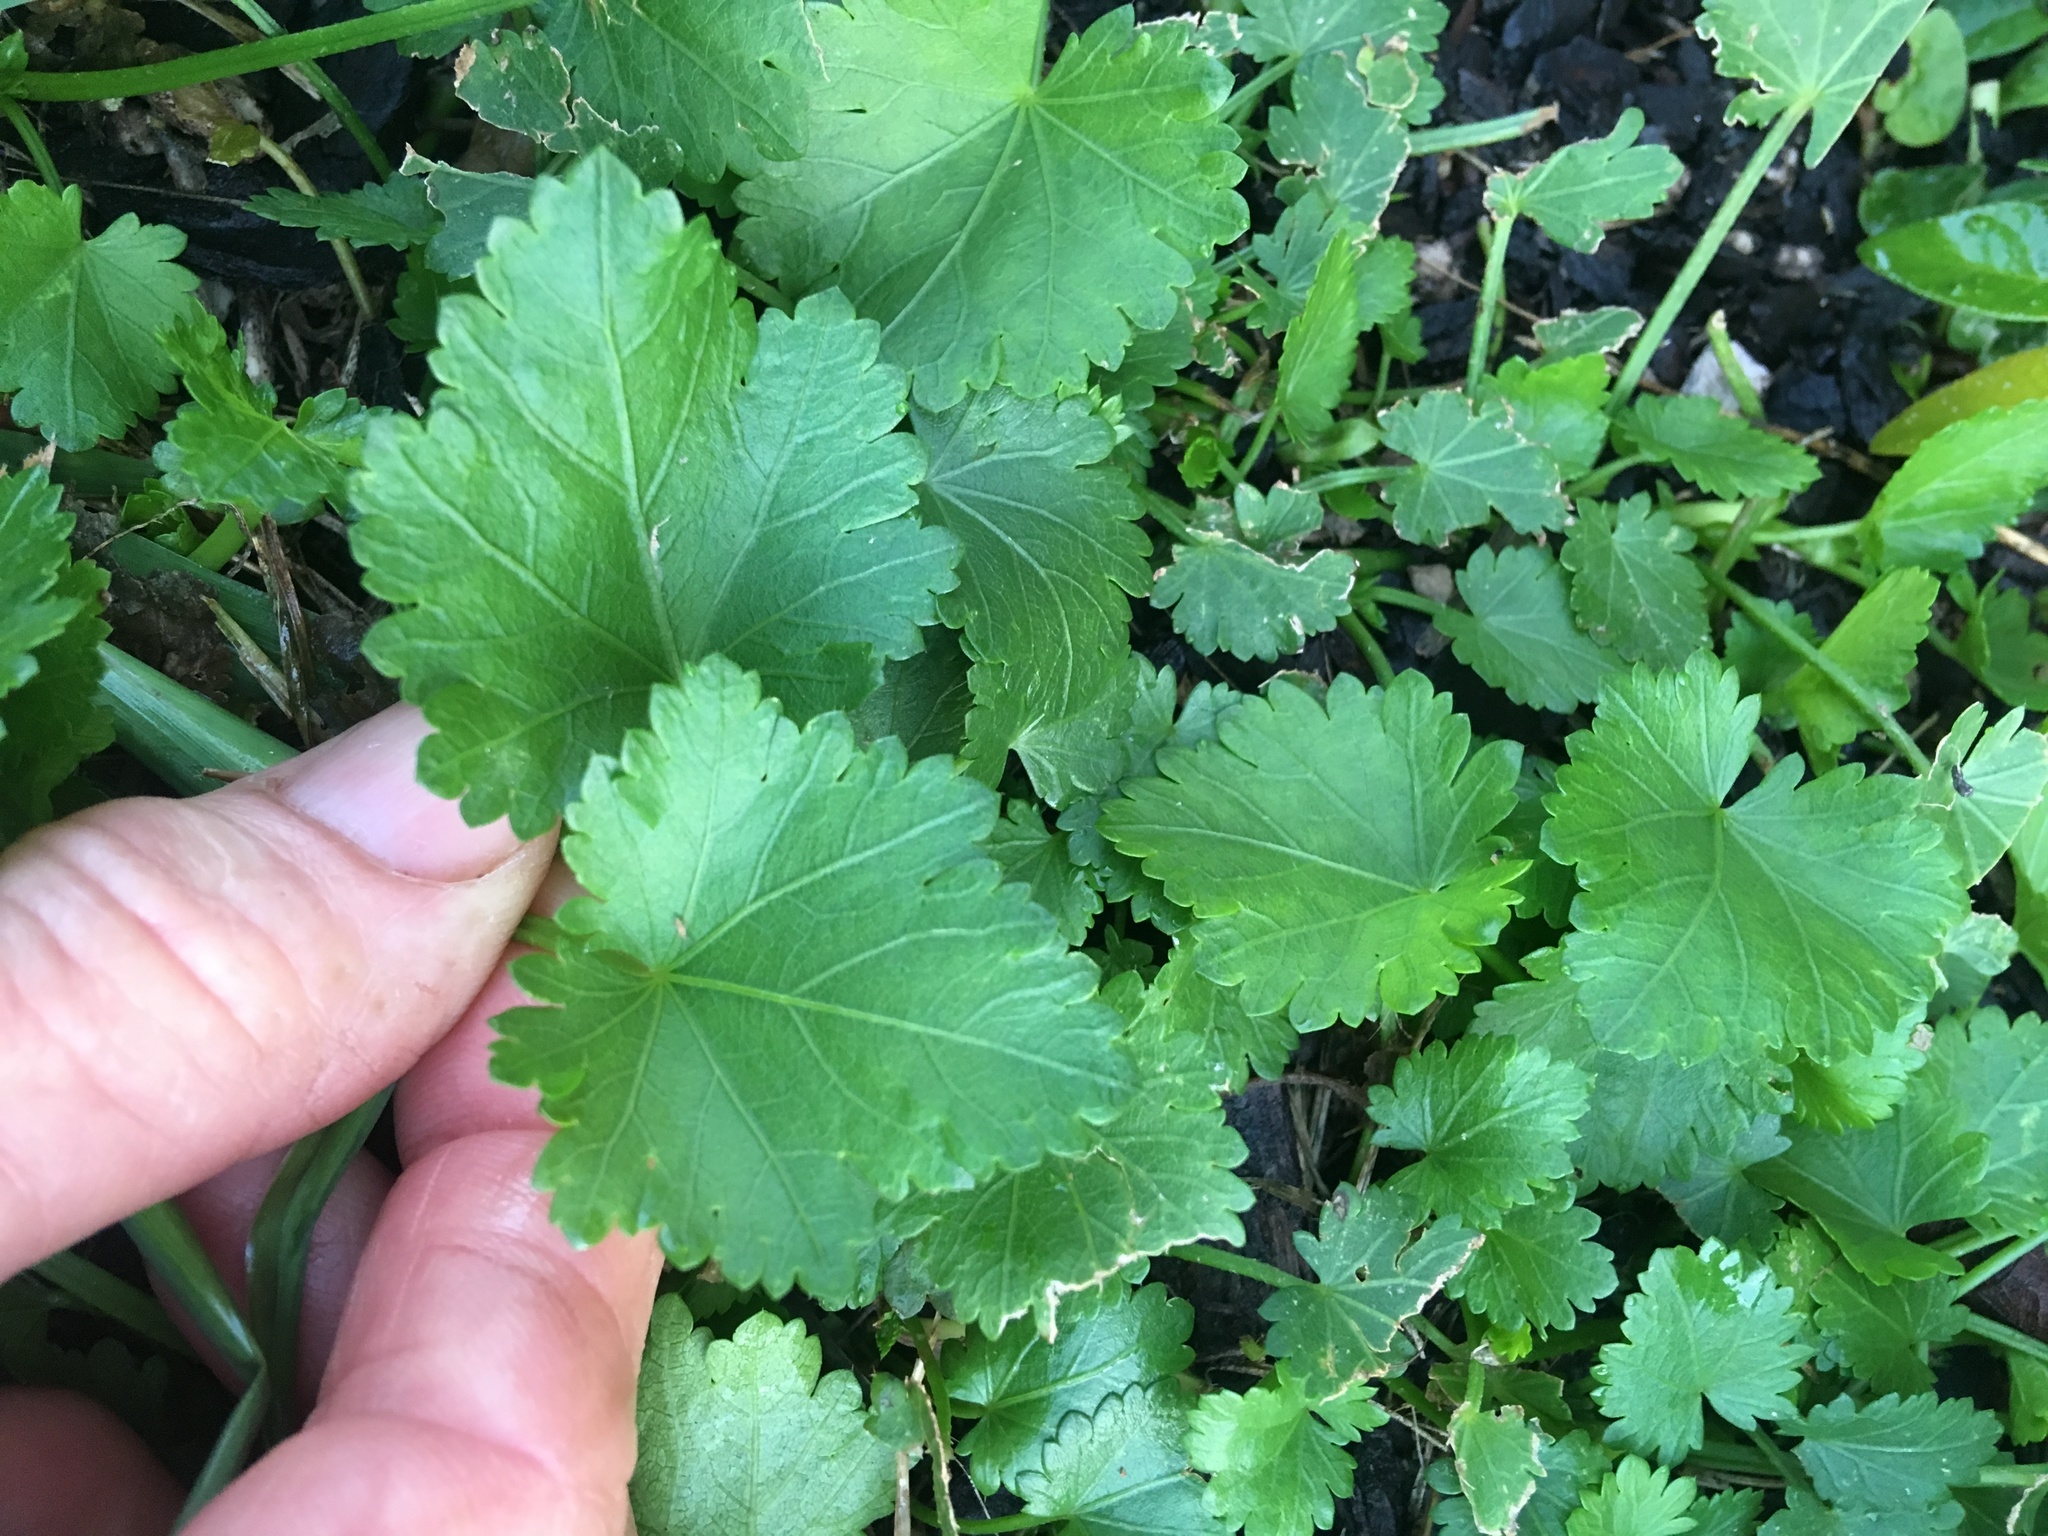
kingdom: Plantae
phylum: Tracheophyta
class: Magnoliopsida
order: Malvales
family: Malvaceae
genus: Modiola
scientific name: Modiola caroliniana
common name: Carolina bristlemallow
